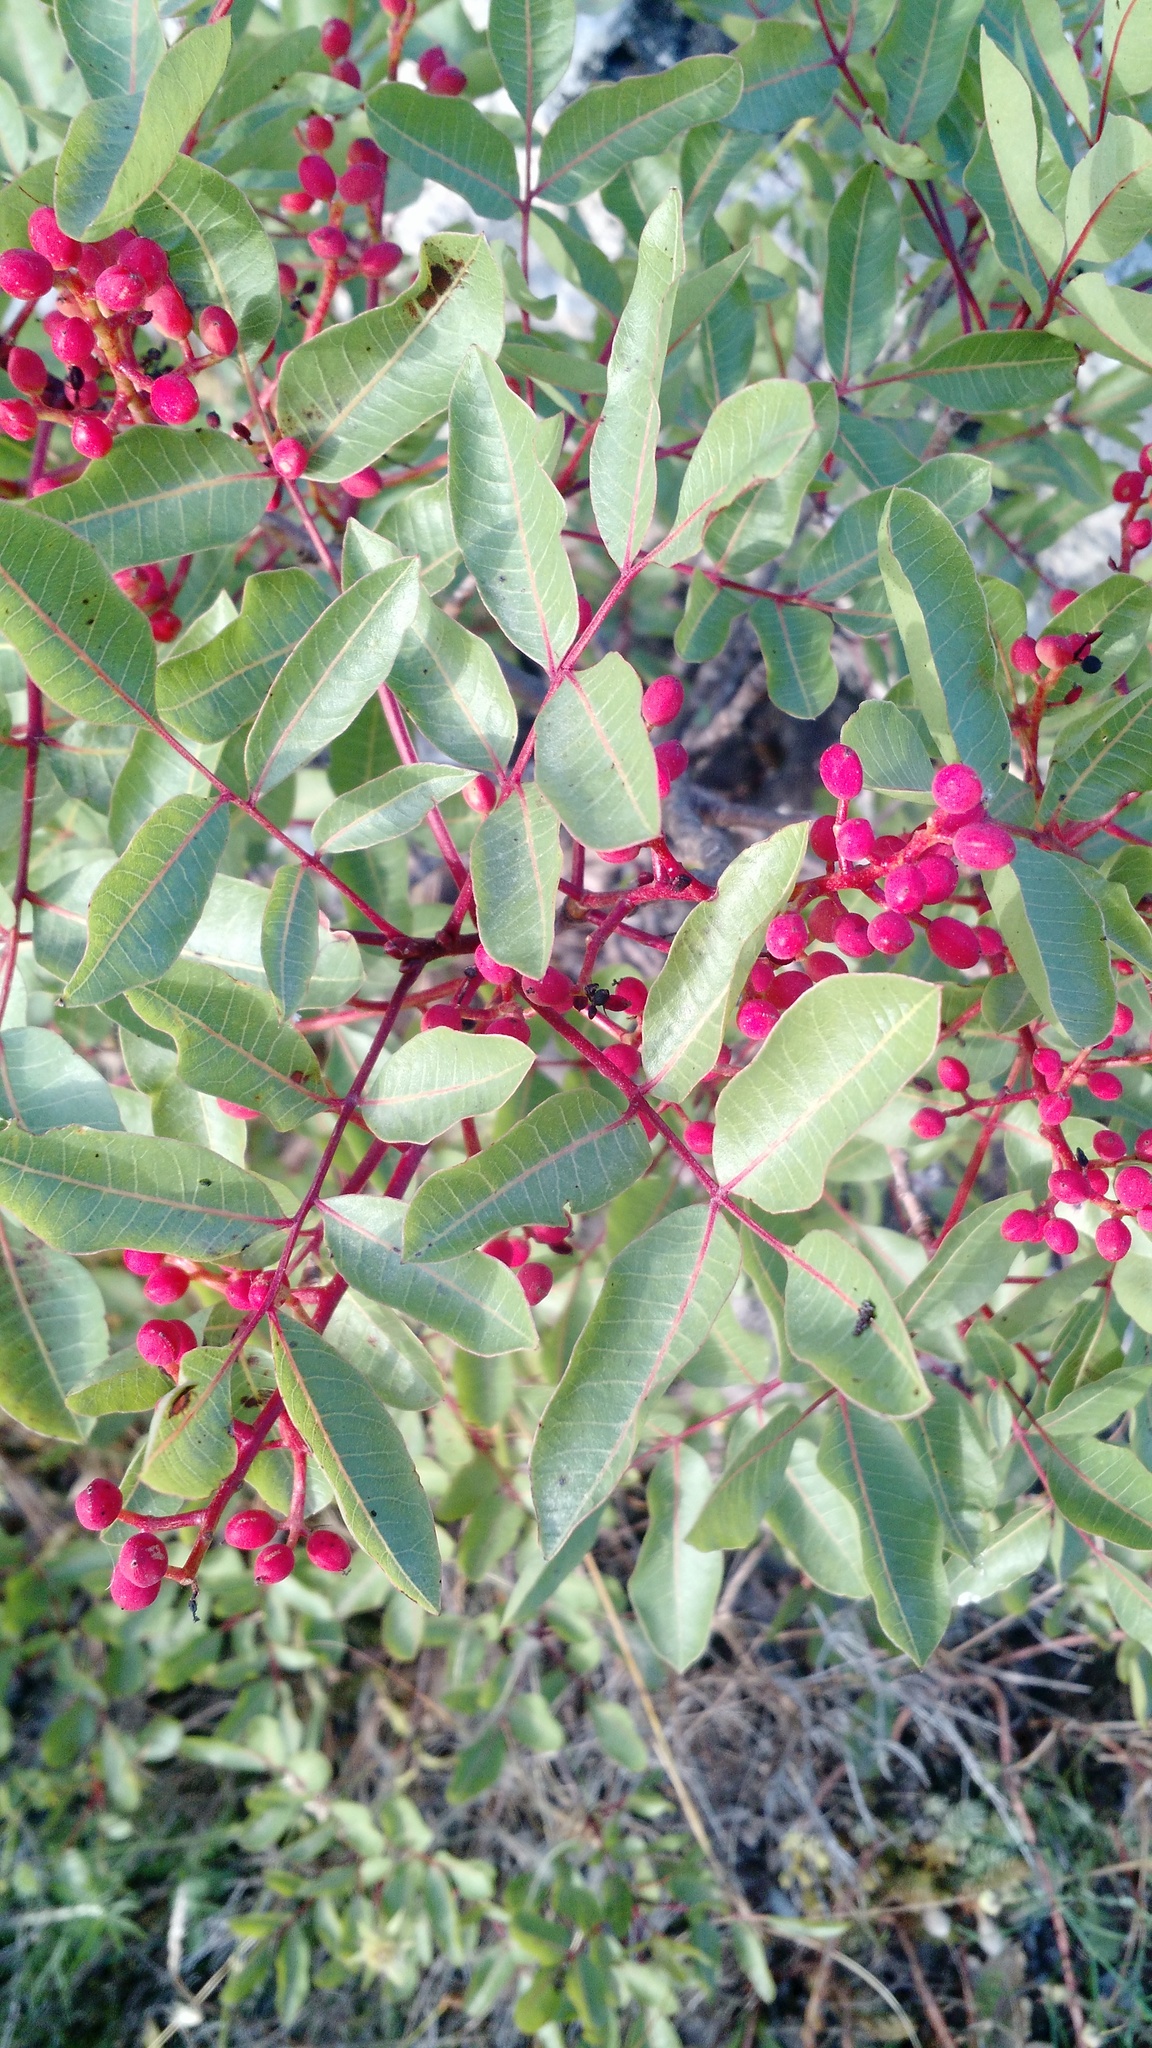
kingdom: Plantae
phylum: Tracheophyta
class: Magnoliopsida
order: Sapindales
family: Anacardiaceae
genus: Pistacia
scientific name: Pistacia terebinthus
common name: Terebinth
